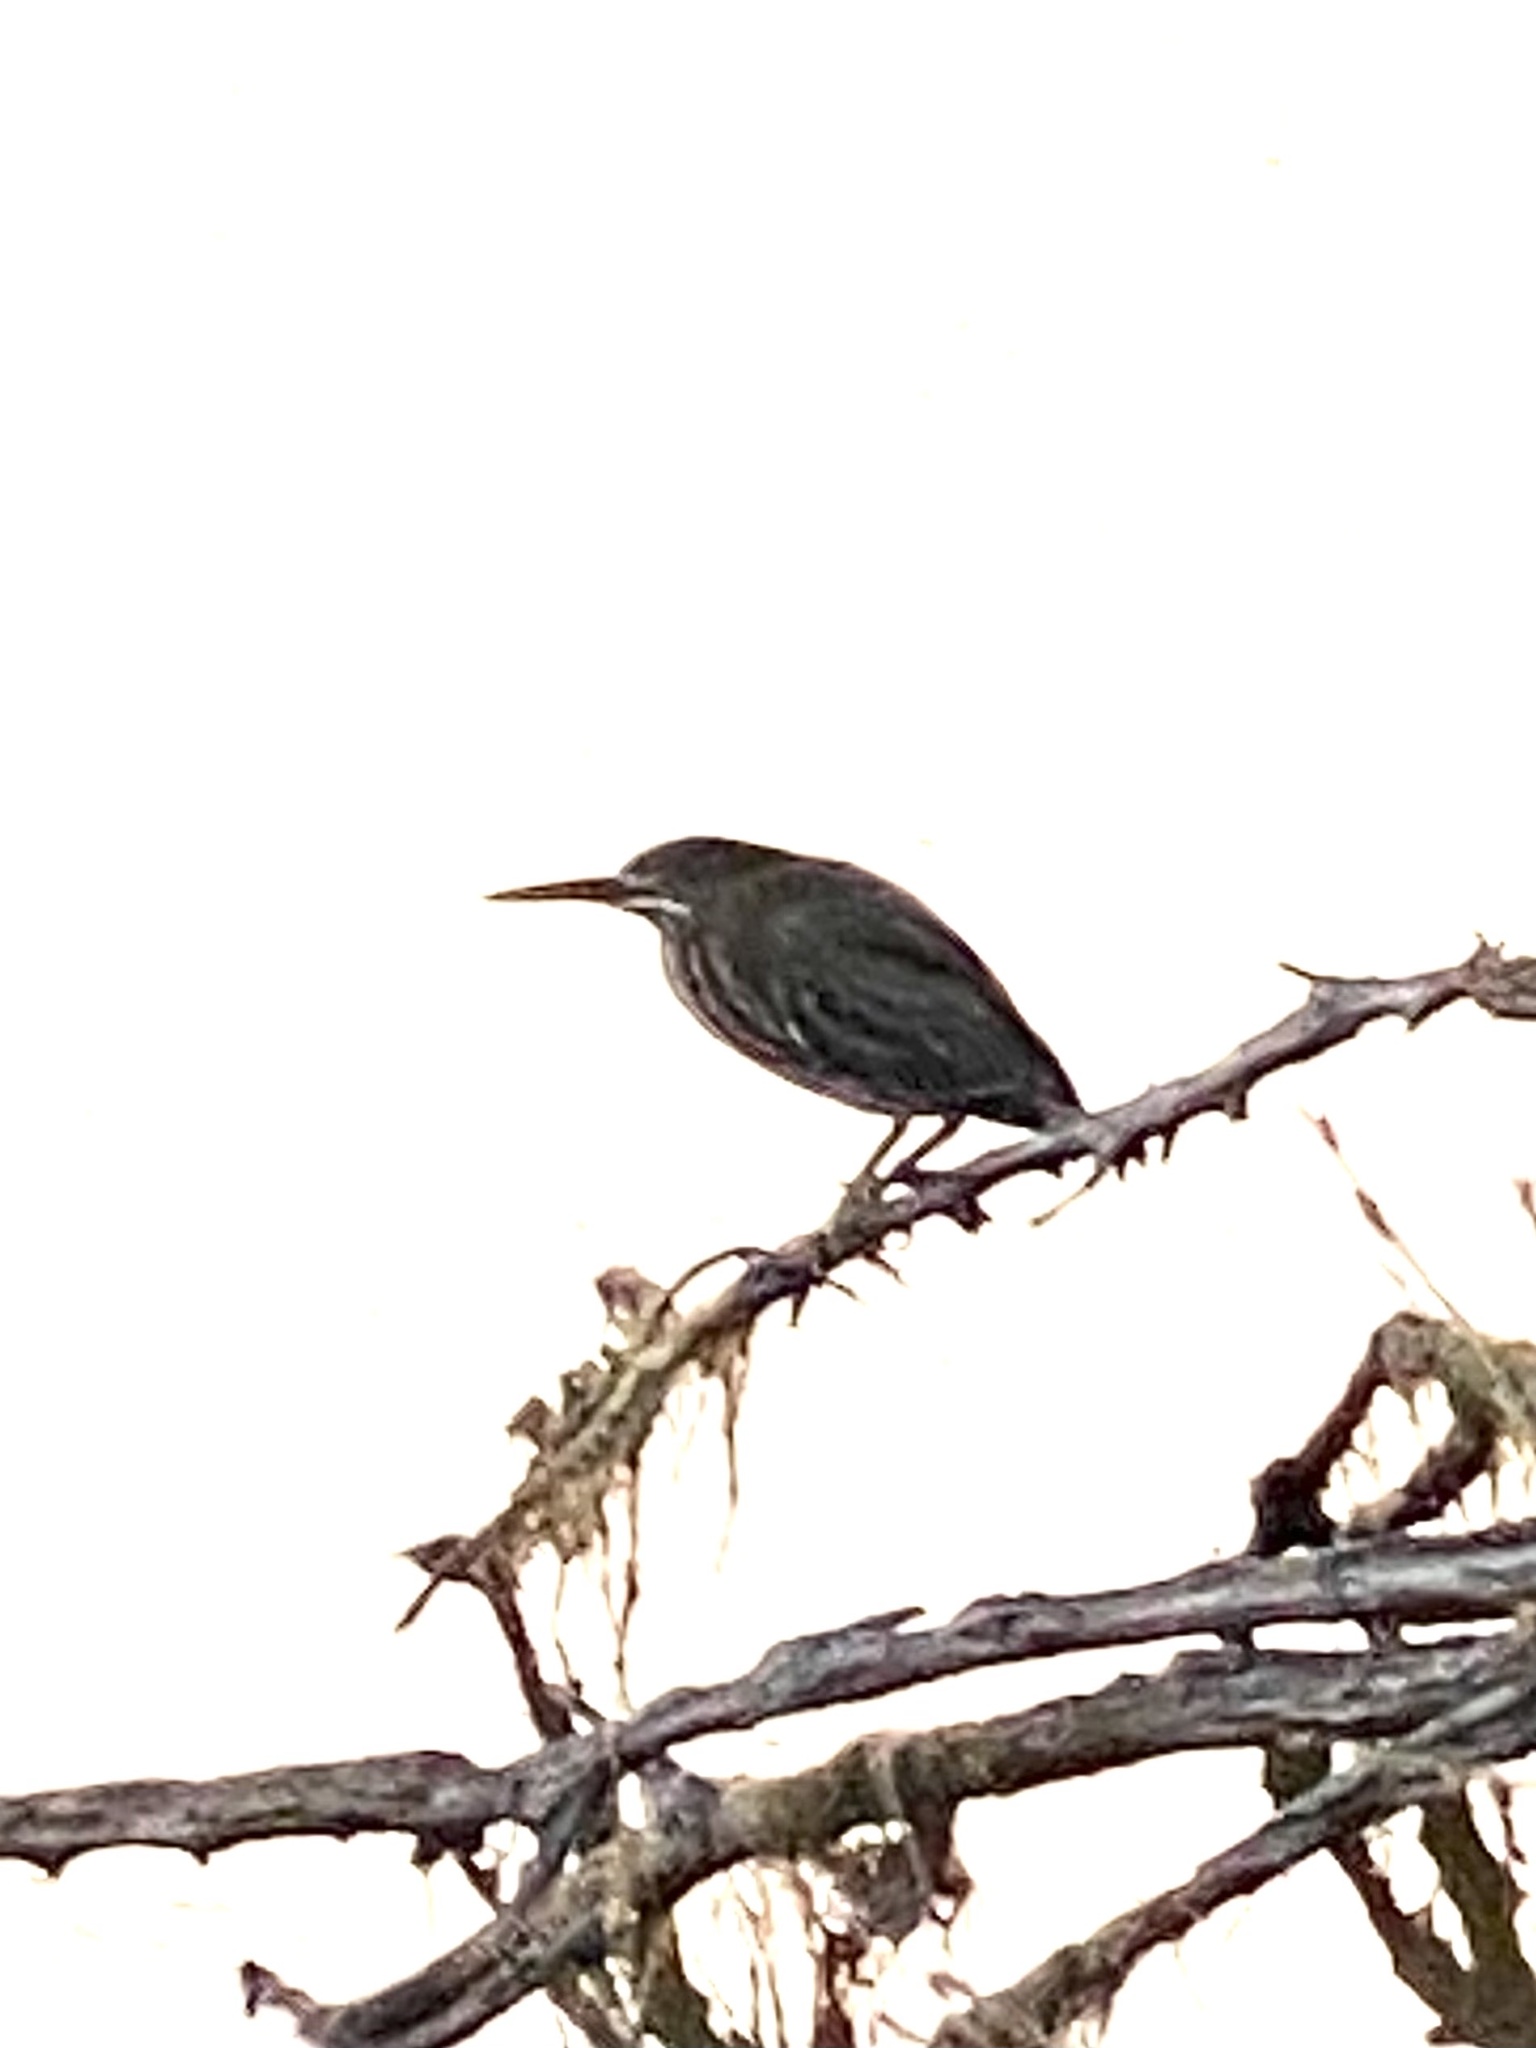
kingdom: Animalia
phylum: Chordata
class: Aves
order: Pelecaniformes
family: Ardeidae
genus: Butorides
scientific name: Butorides virescens
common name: Green heron
